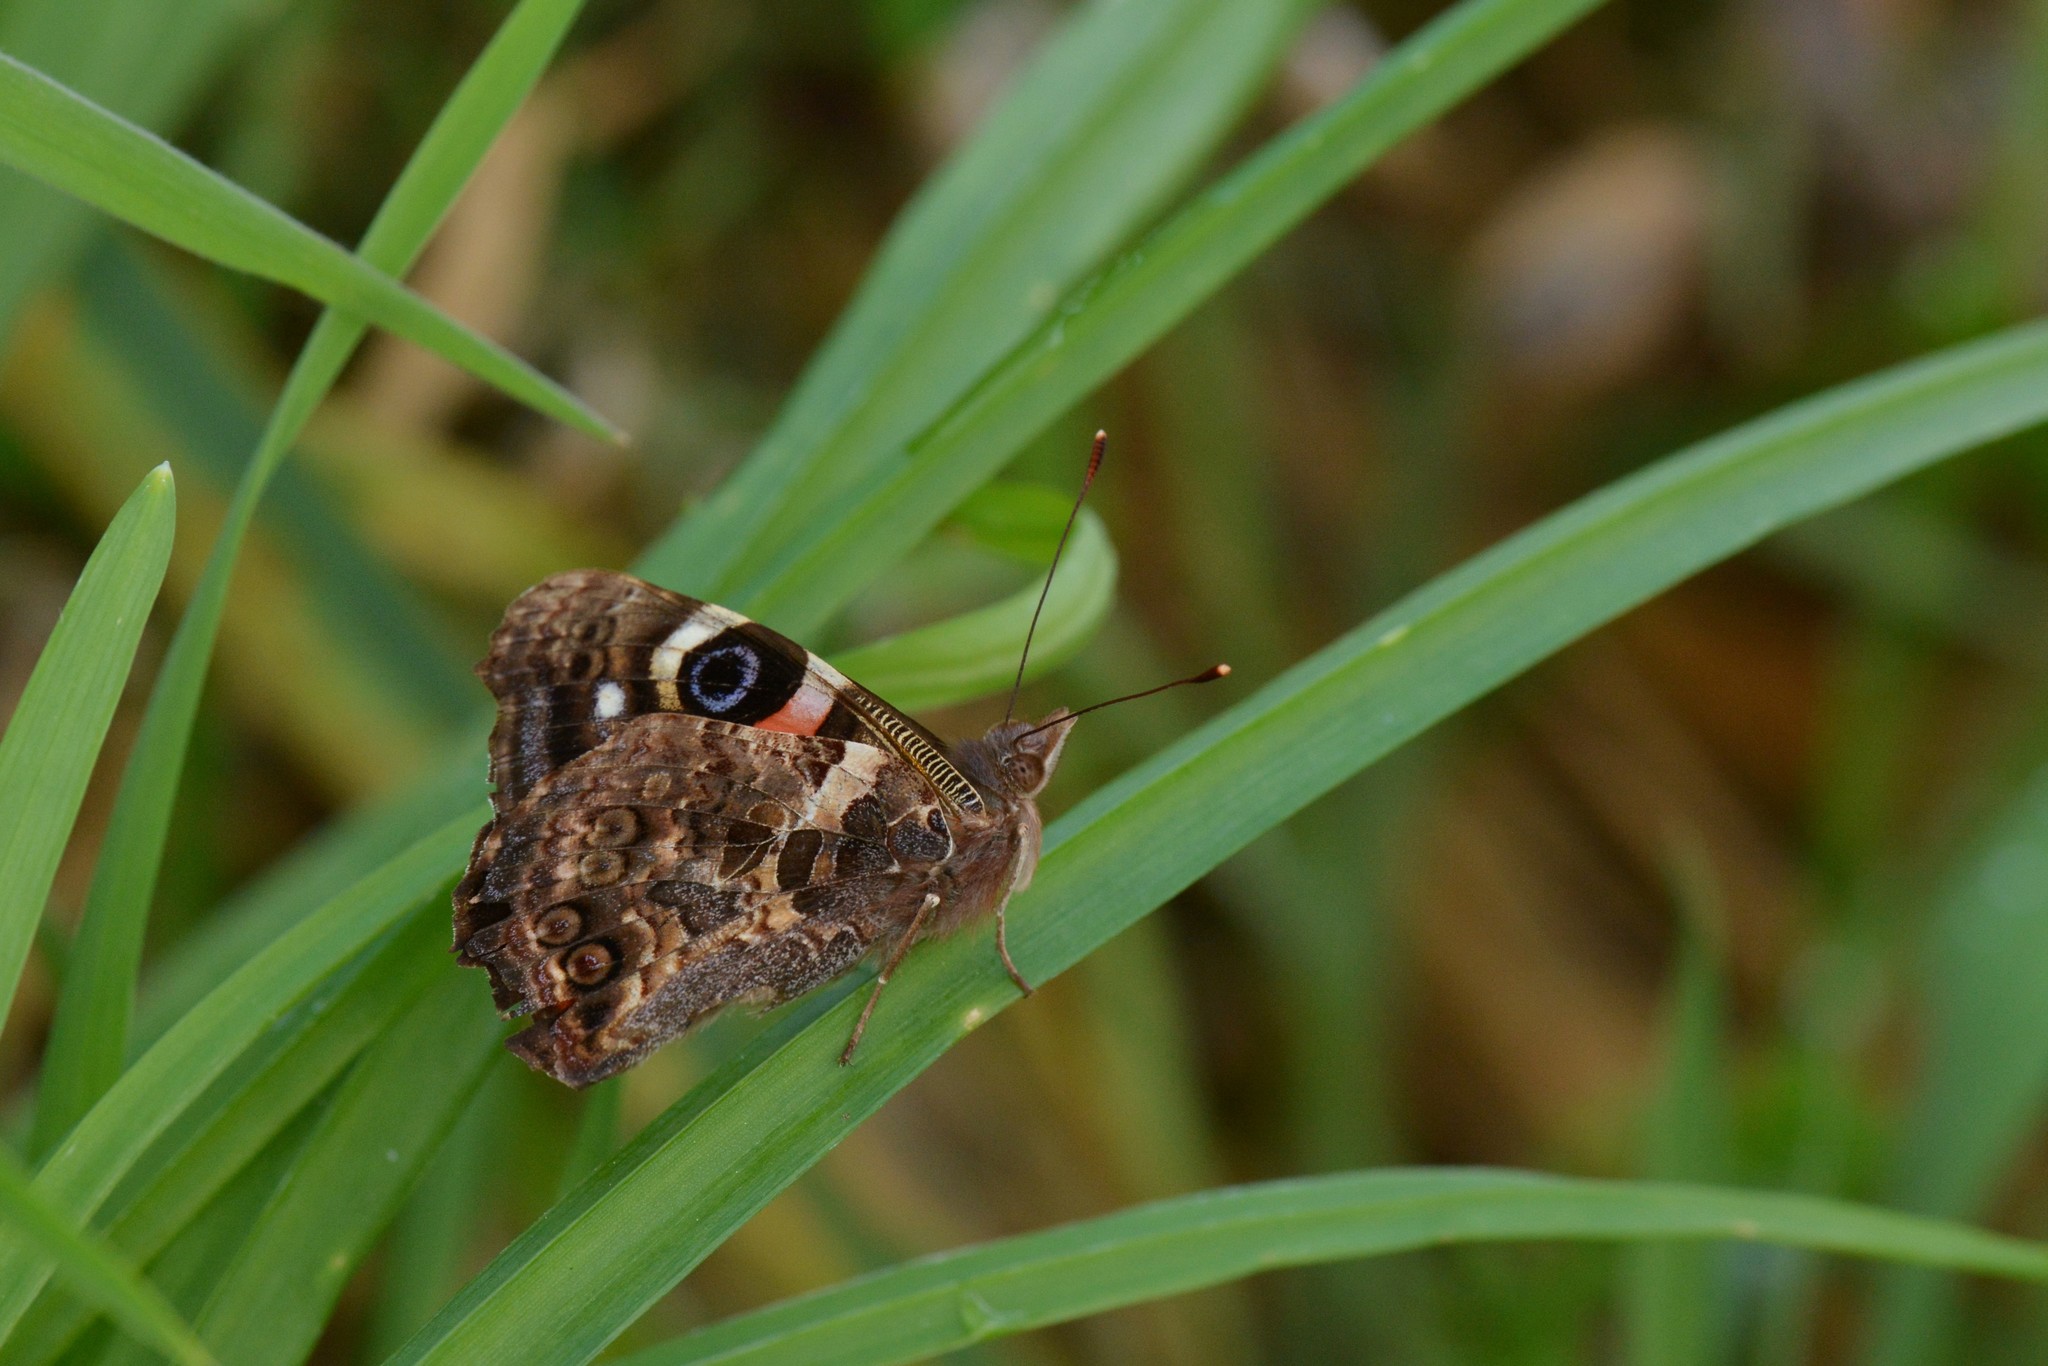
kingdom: Animalia
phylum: Arthropoda
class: Insecta
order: Lepidoptera
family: Nymphalidae
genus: Vanessa
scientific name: Vanessa gonerilla
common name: New zealand red admiral
